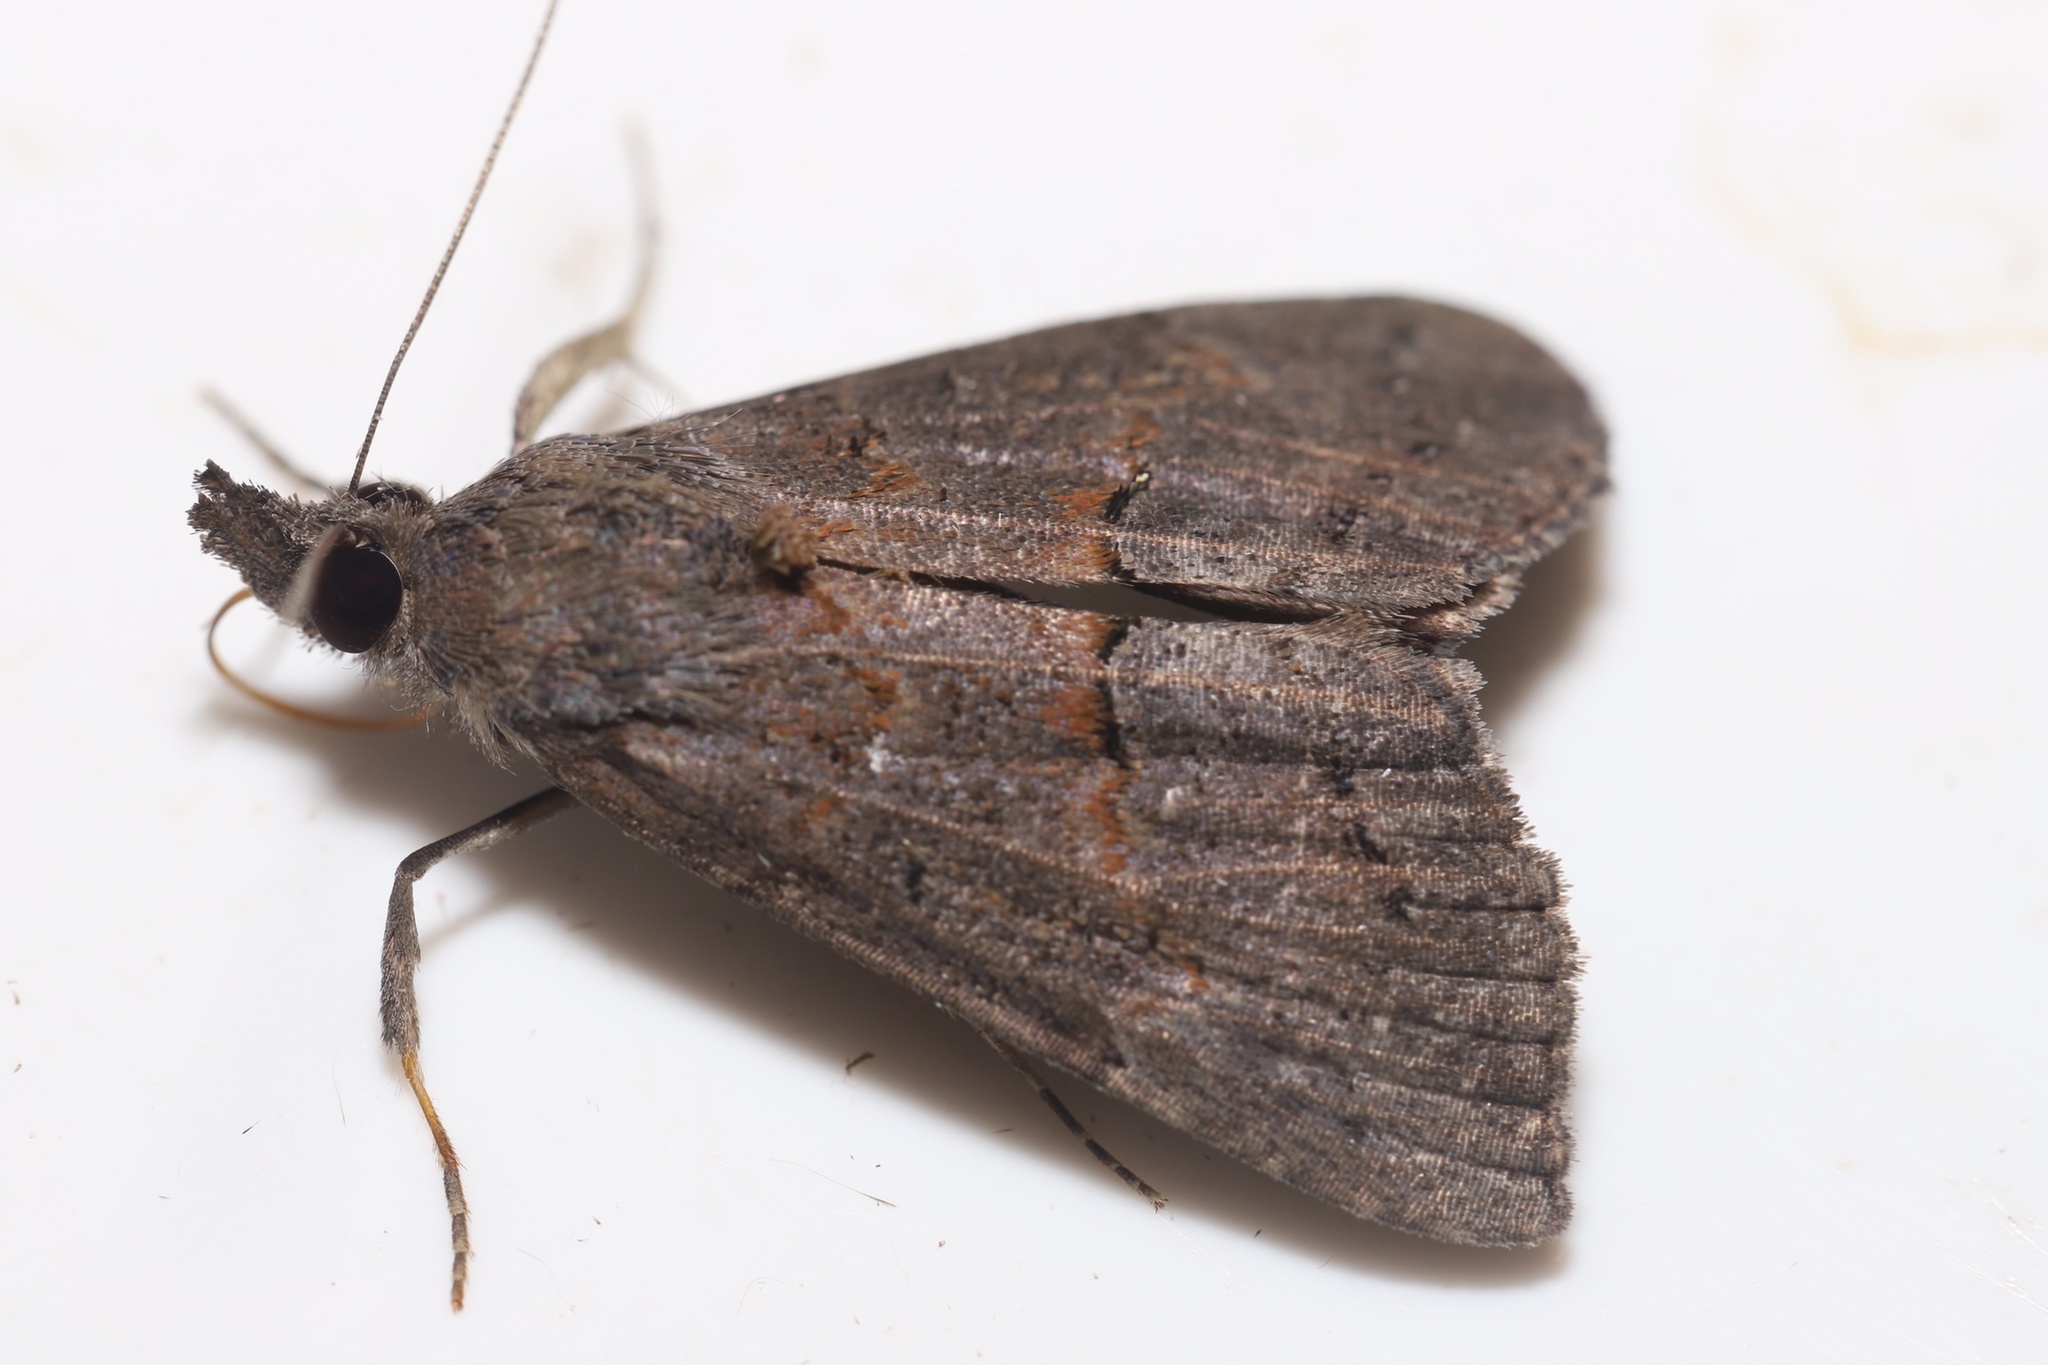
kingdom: Animalia
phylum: Arthropoda
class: Insecta
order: Lepidoptera
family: Erebidae
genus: Hypena
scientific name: Hypena scabra
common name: Green cloverworm
